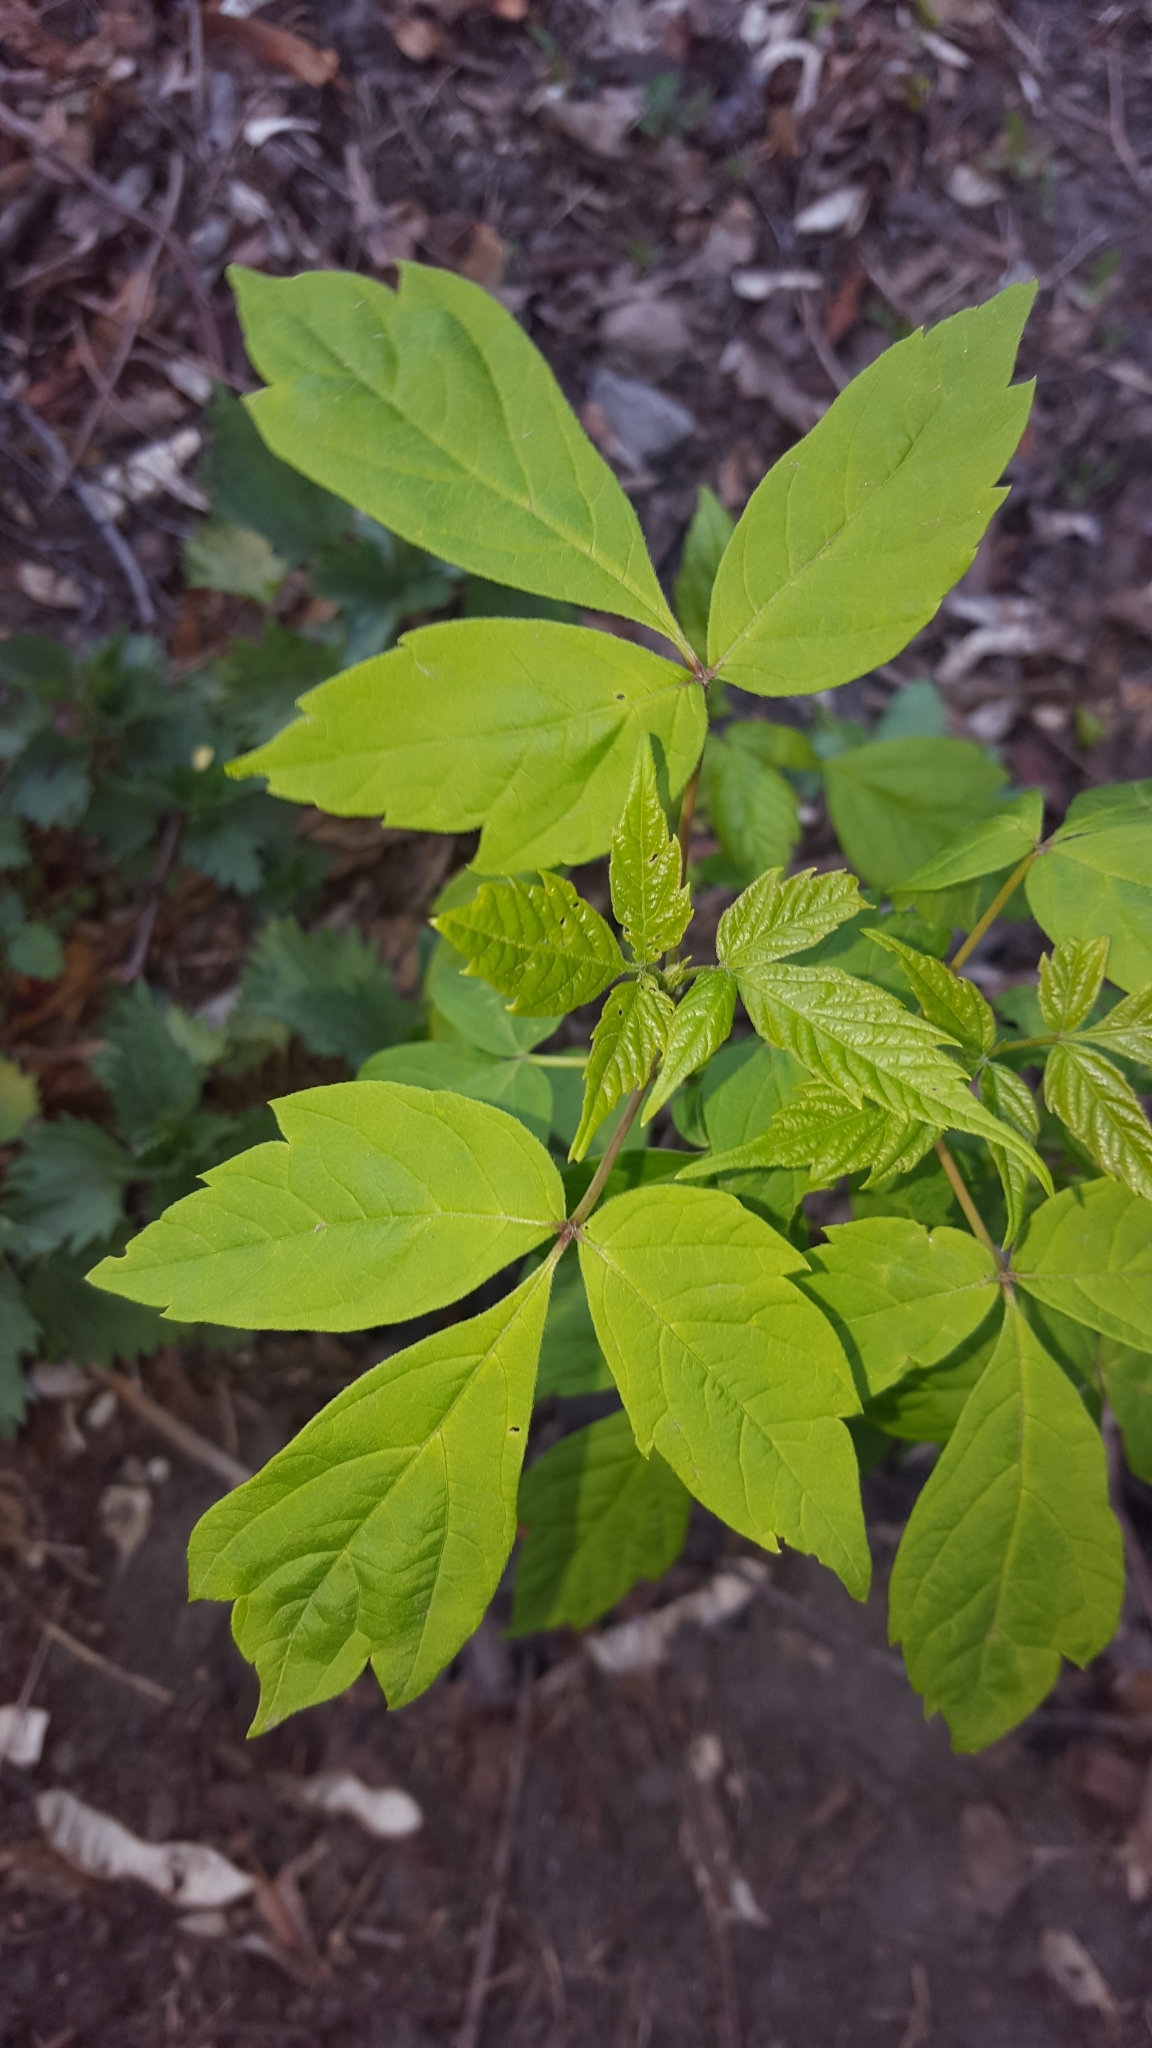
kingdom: Plantae
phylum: Tracheophyta
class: Magnoliopsida
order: Sapindales
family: Sapindaceae
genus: Acer
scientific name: Acer negundo
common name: Ashleaf maple
